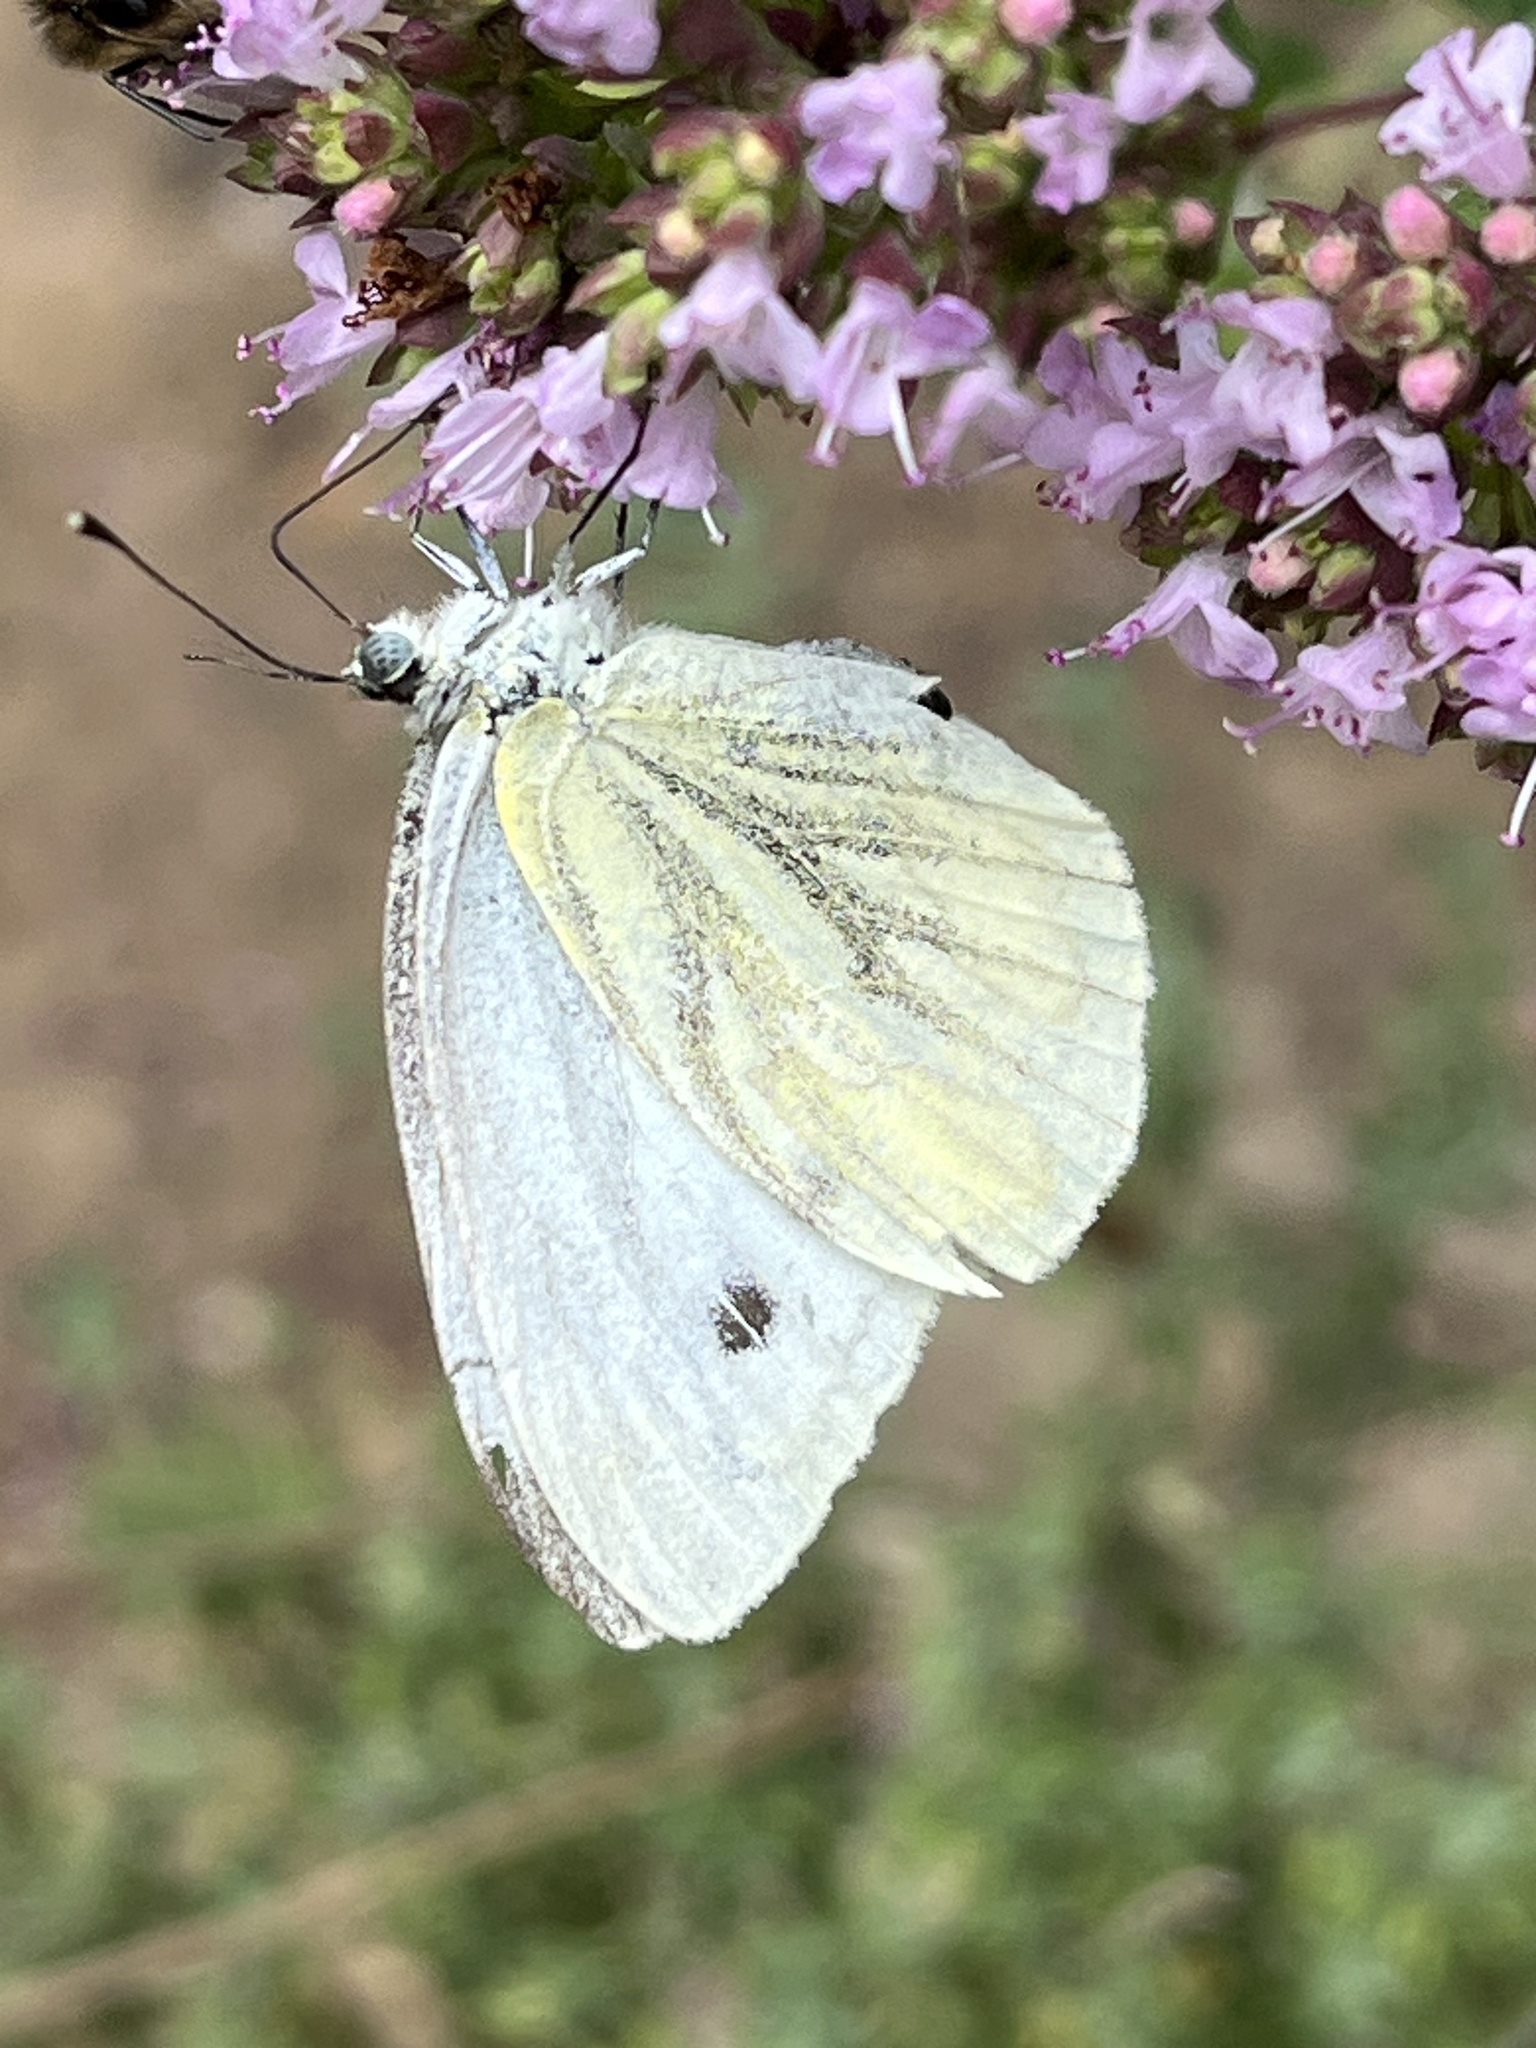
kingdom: Animalia
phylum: Arthropoda
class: Insecta
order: Lepidoptera
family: Pieridae
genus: Pieris
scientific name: Pieris napi
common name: Green-veined white
